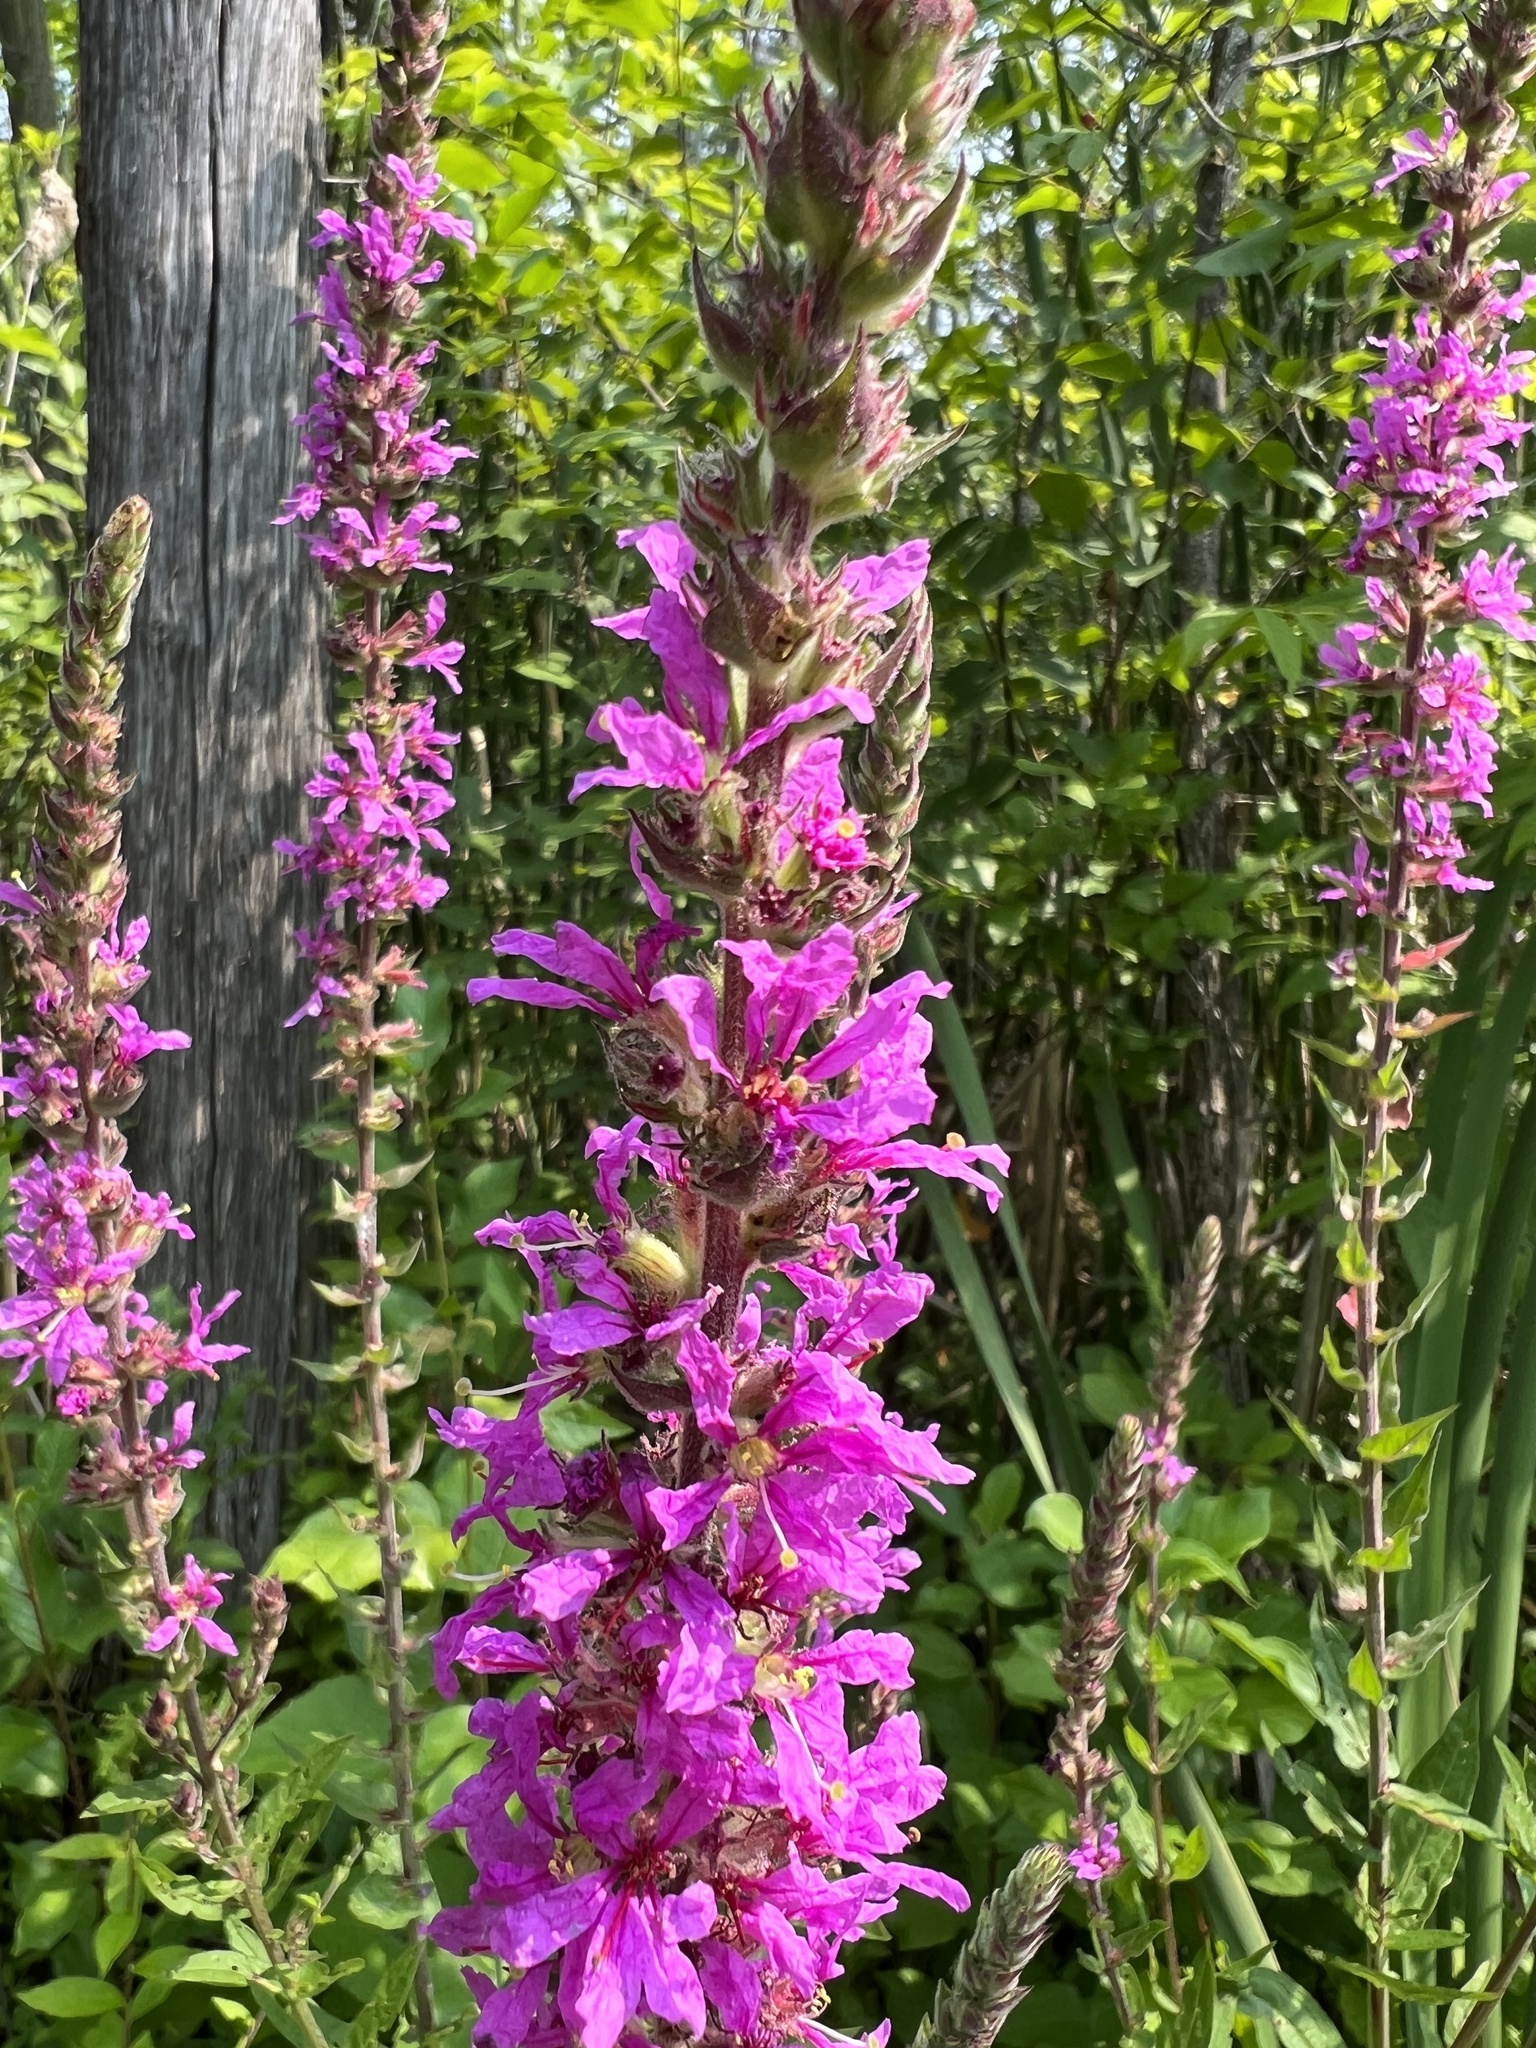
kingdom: Plantae
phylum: Tracheophyta
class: Magnoliopsida
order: Myrtales
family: Lythraceae
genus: Lythrum
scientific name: Lythrum salicaria
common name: Purple loosestrife
